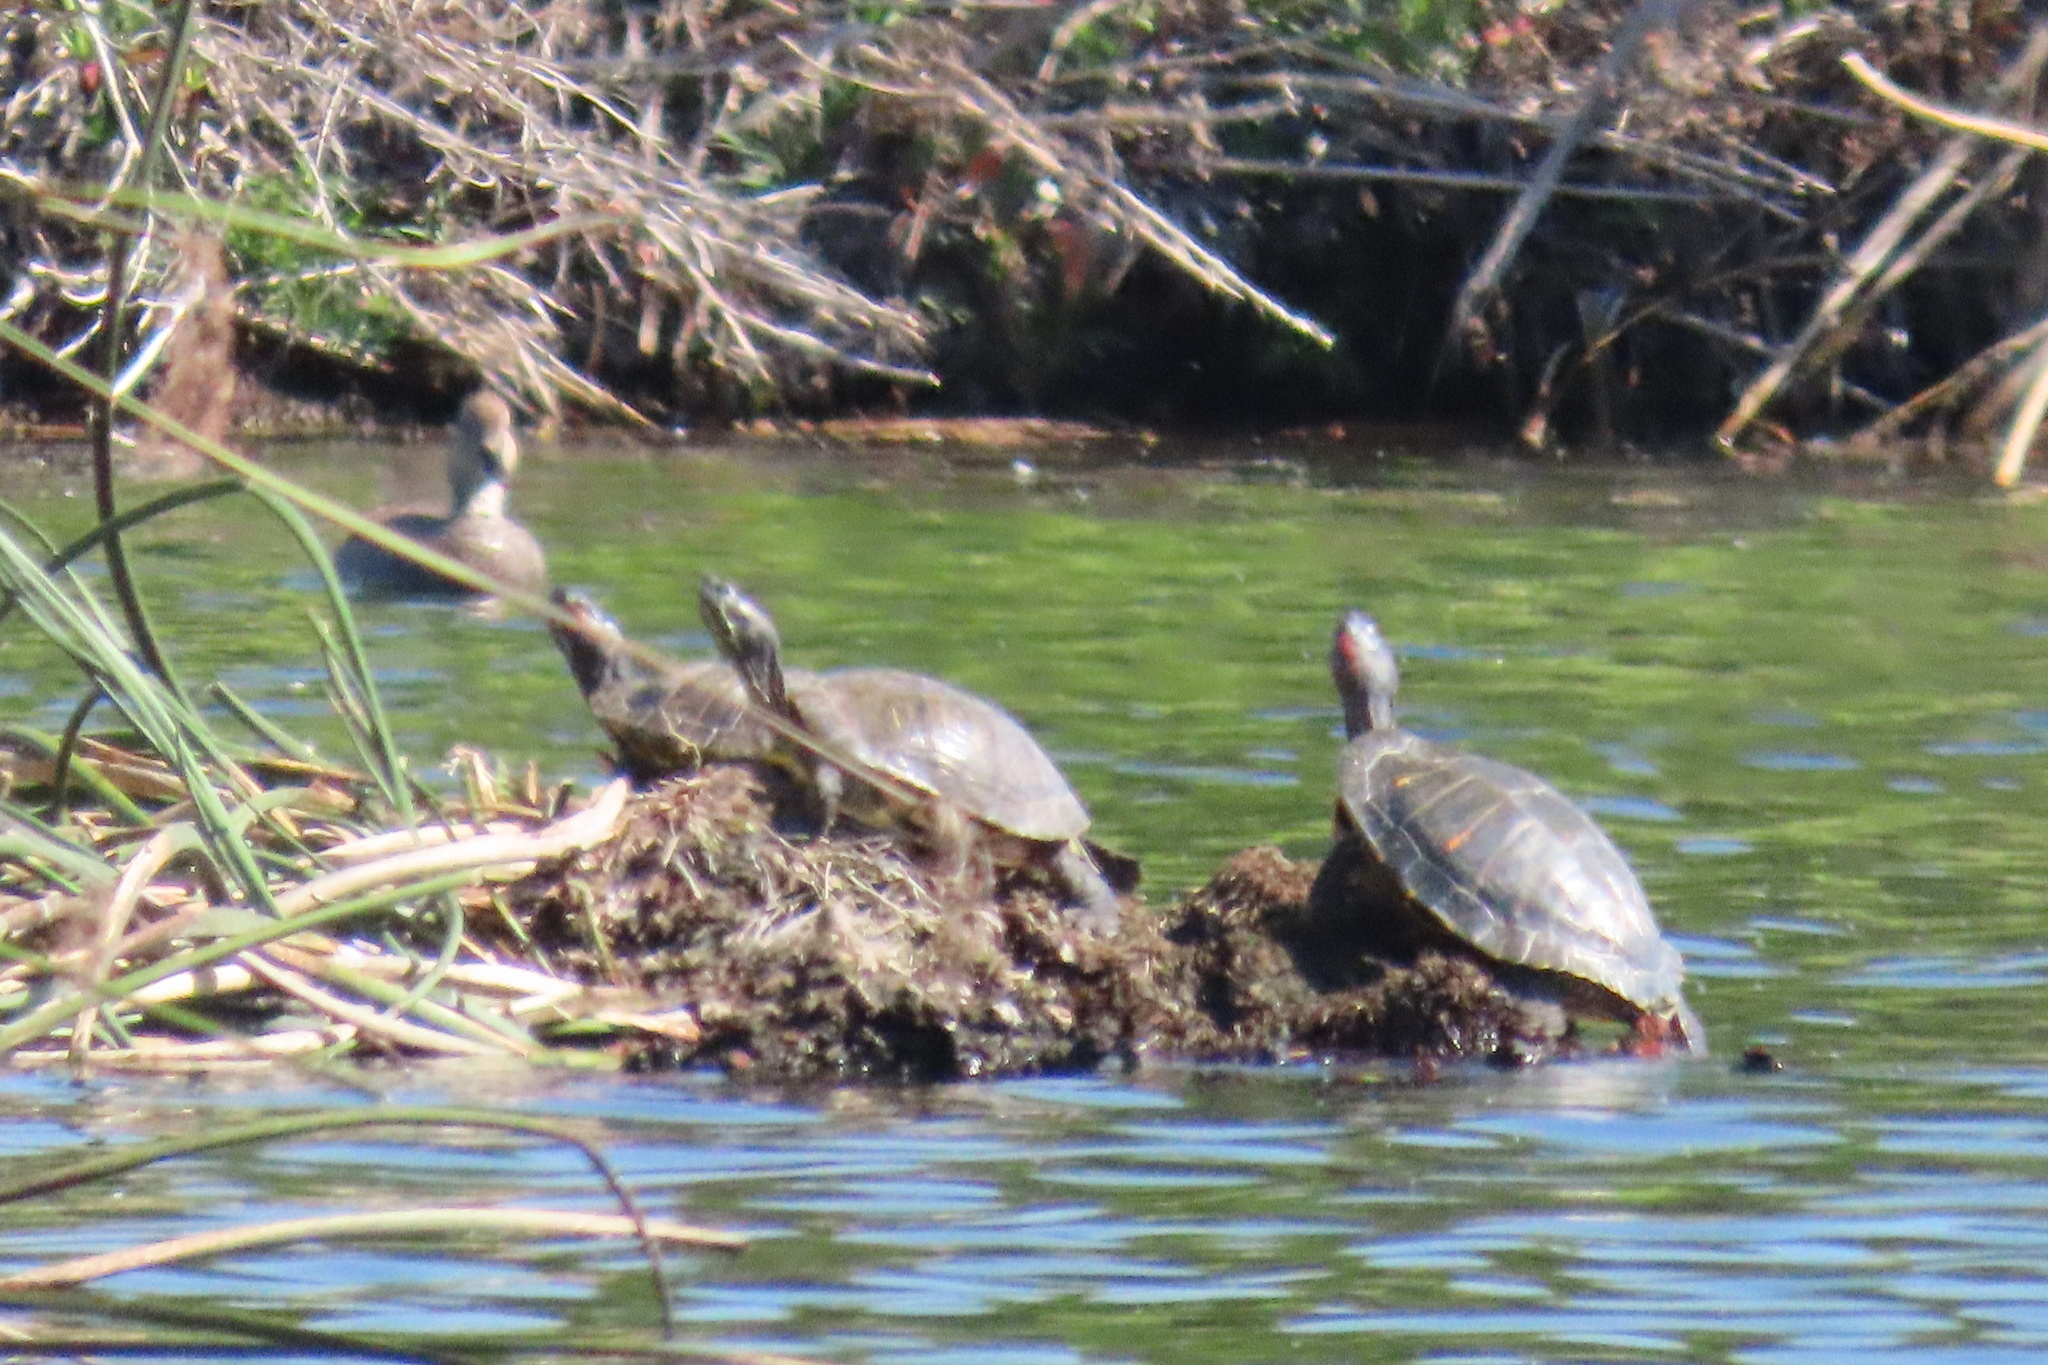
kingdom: Animalia
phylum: Chordata
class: Testudines
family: Emydidae
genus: Trachemys
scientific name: Trachemys scripta
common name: Slider
